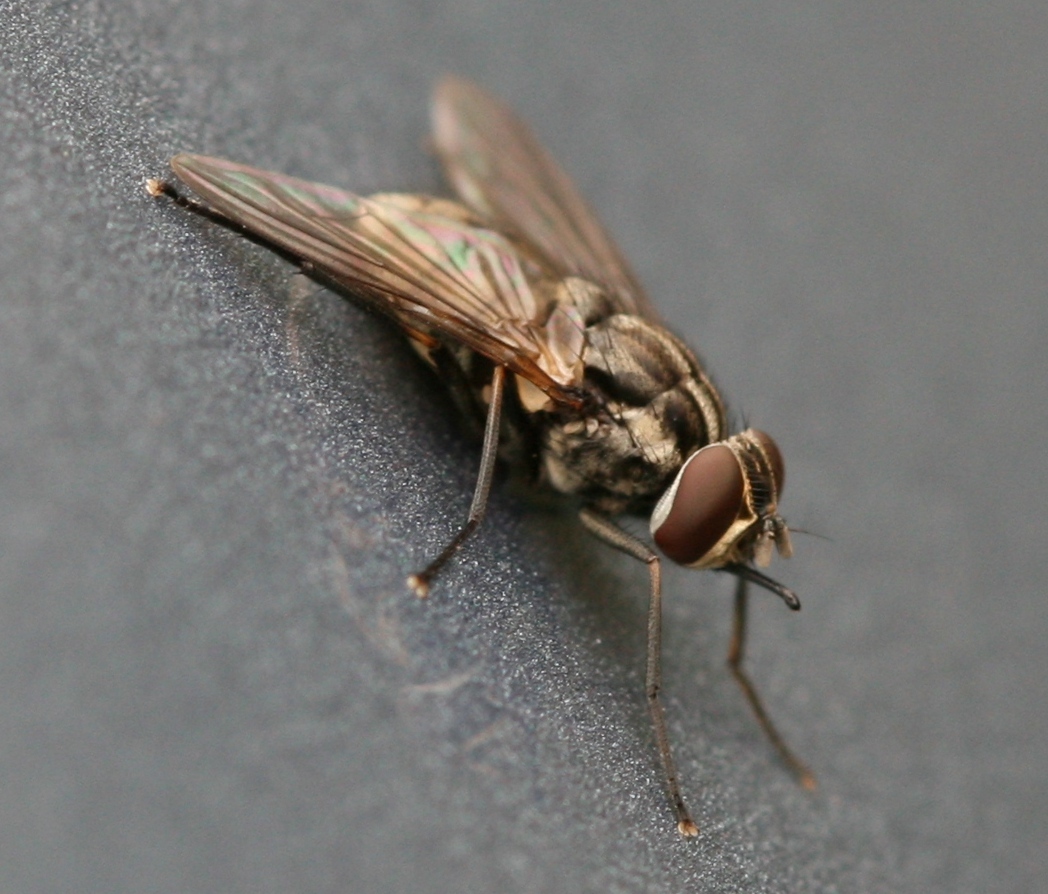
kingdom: Animalia
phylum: Arthropoda
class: Insecta
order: Diptera
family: Muscidae
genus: Stomoxys
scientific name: Stomoxys calcitrans
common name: Stable fly
